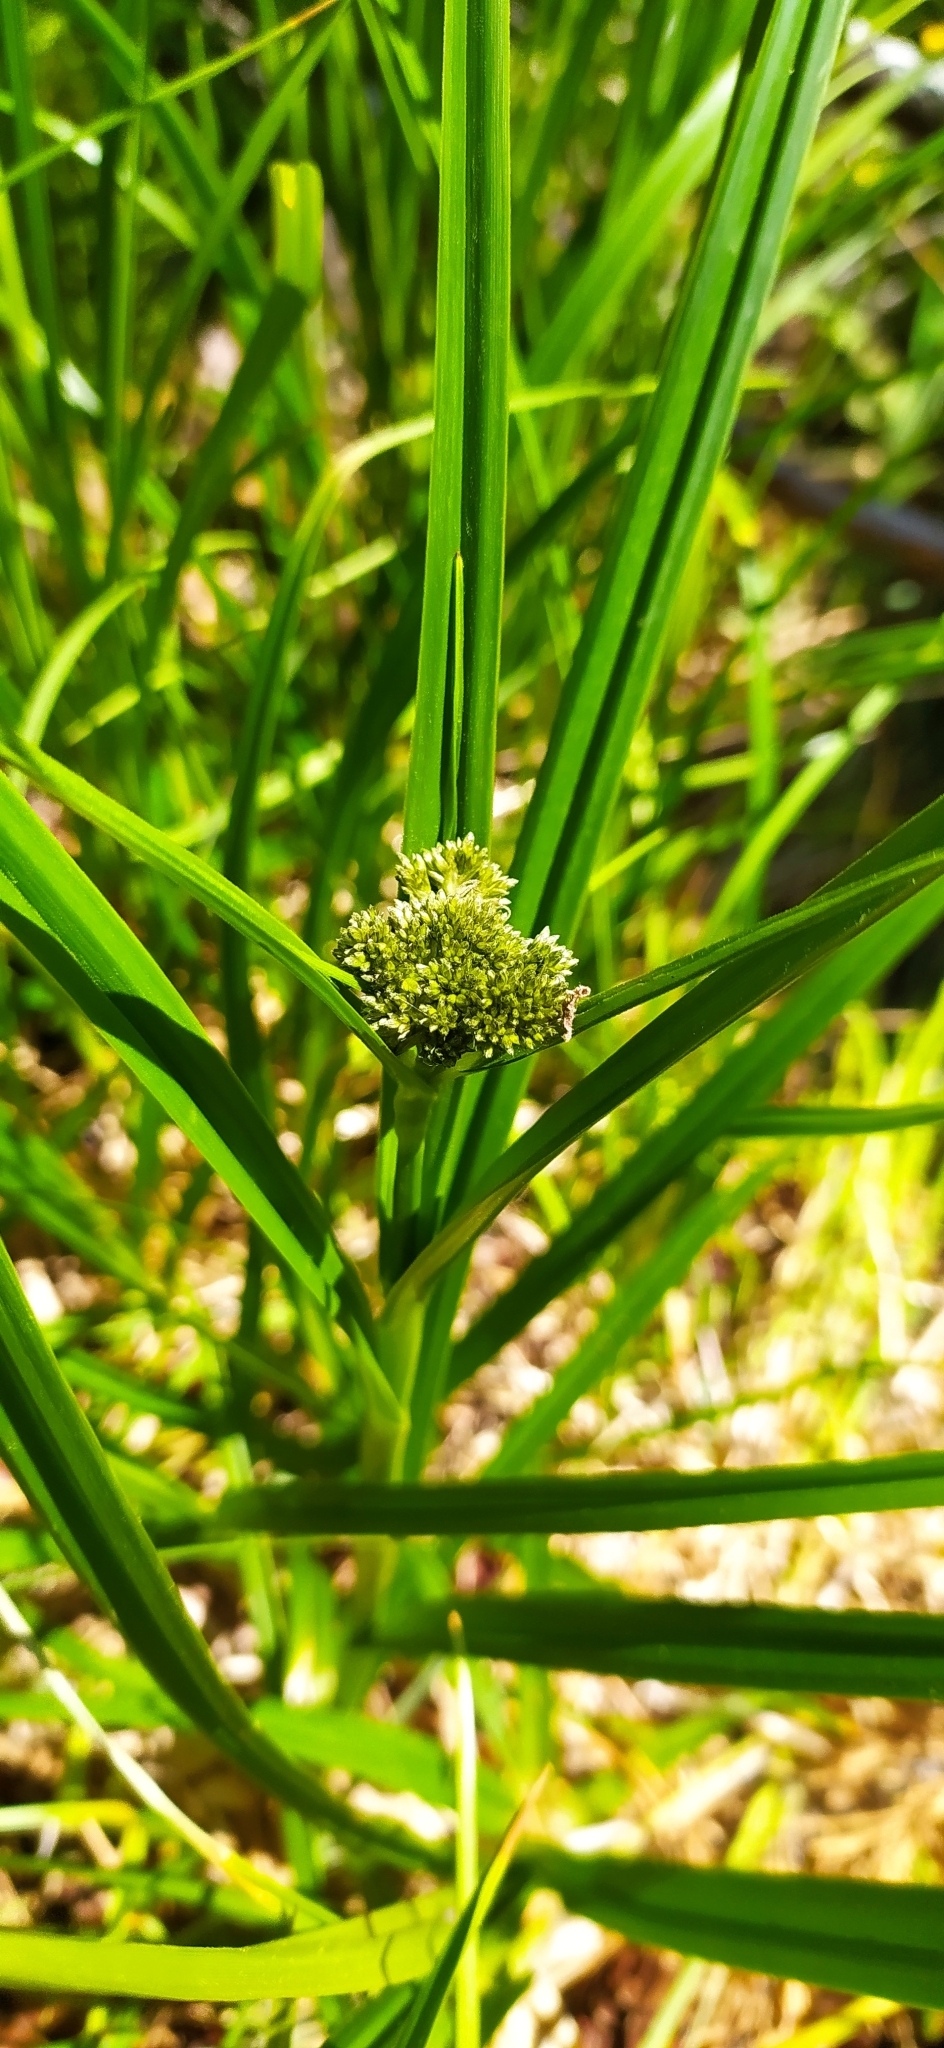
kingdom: Plantae
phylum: Tracheophyta
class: Liliopsida
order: Poales
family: Cyperaceae
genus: Scirpus
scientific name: Scirpus sylvaticus
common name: Wood club-rush
